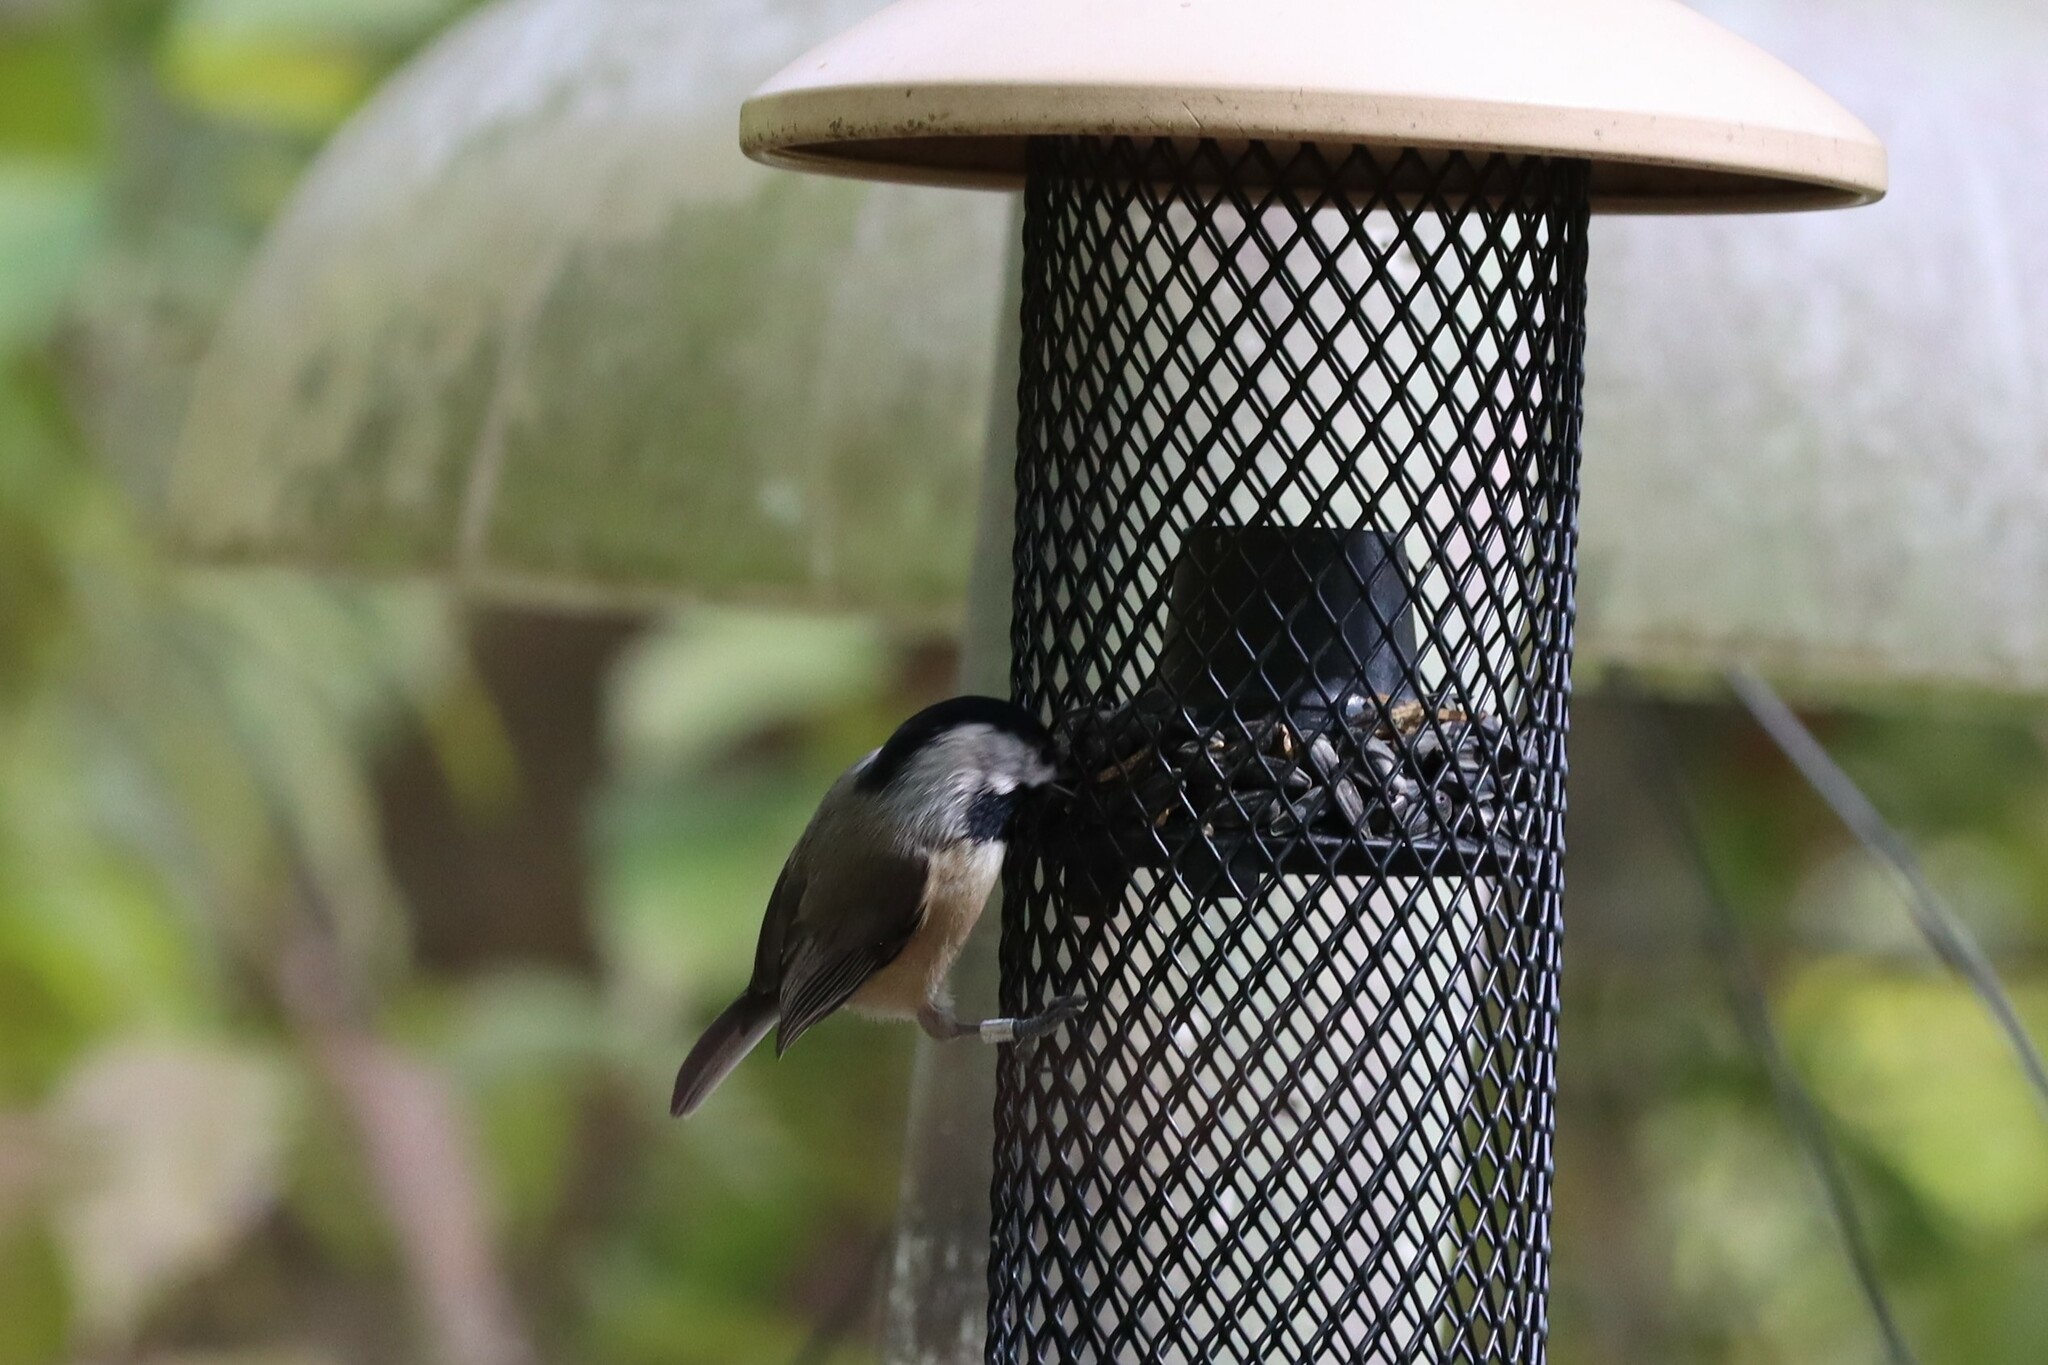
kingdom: Animalia
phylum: Chordata
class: Aves
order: Passeriformes
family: Paridae
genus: Poecile
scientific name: Poecile carolinensis
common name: Carolina chickadee
